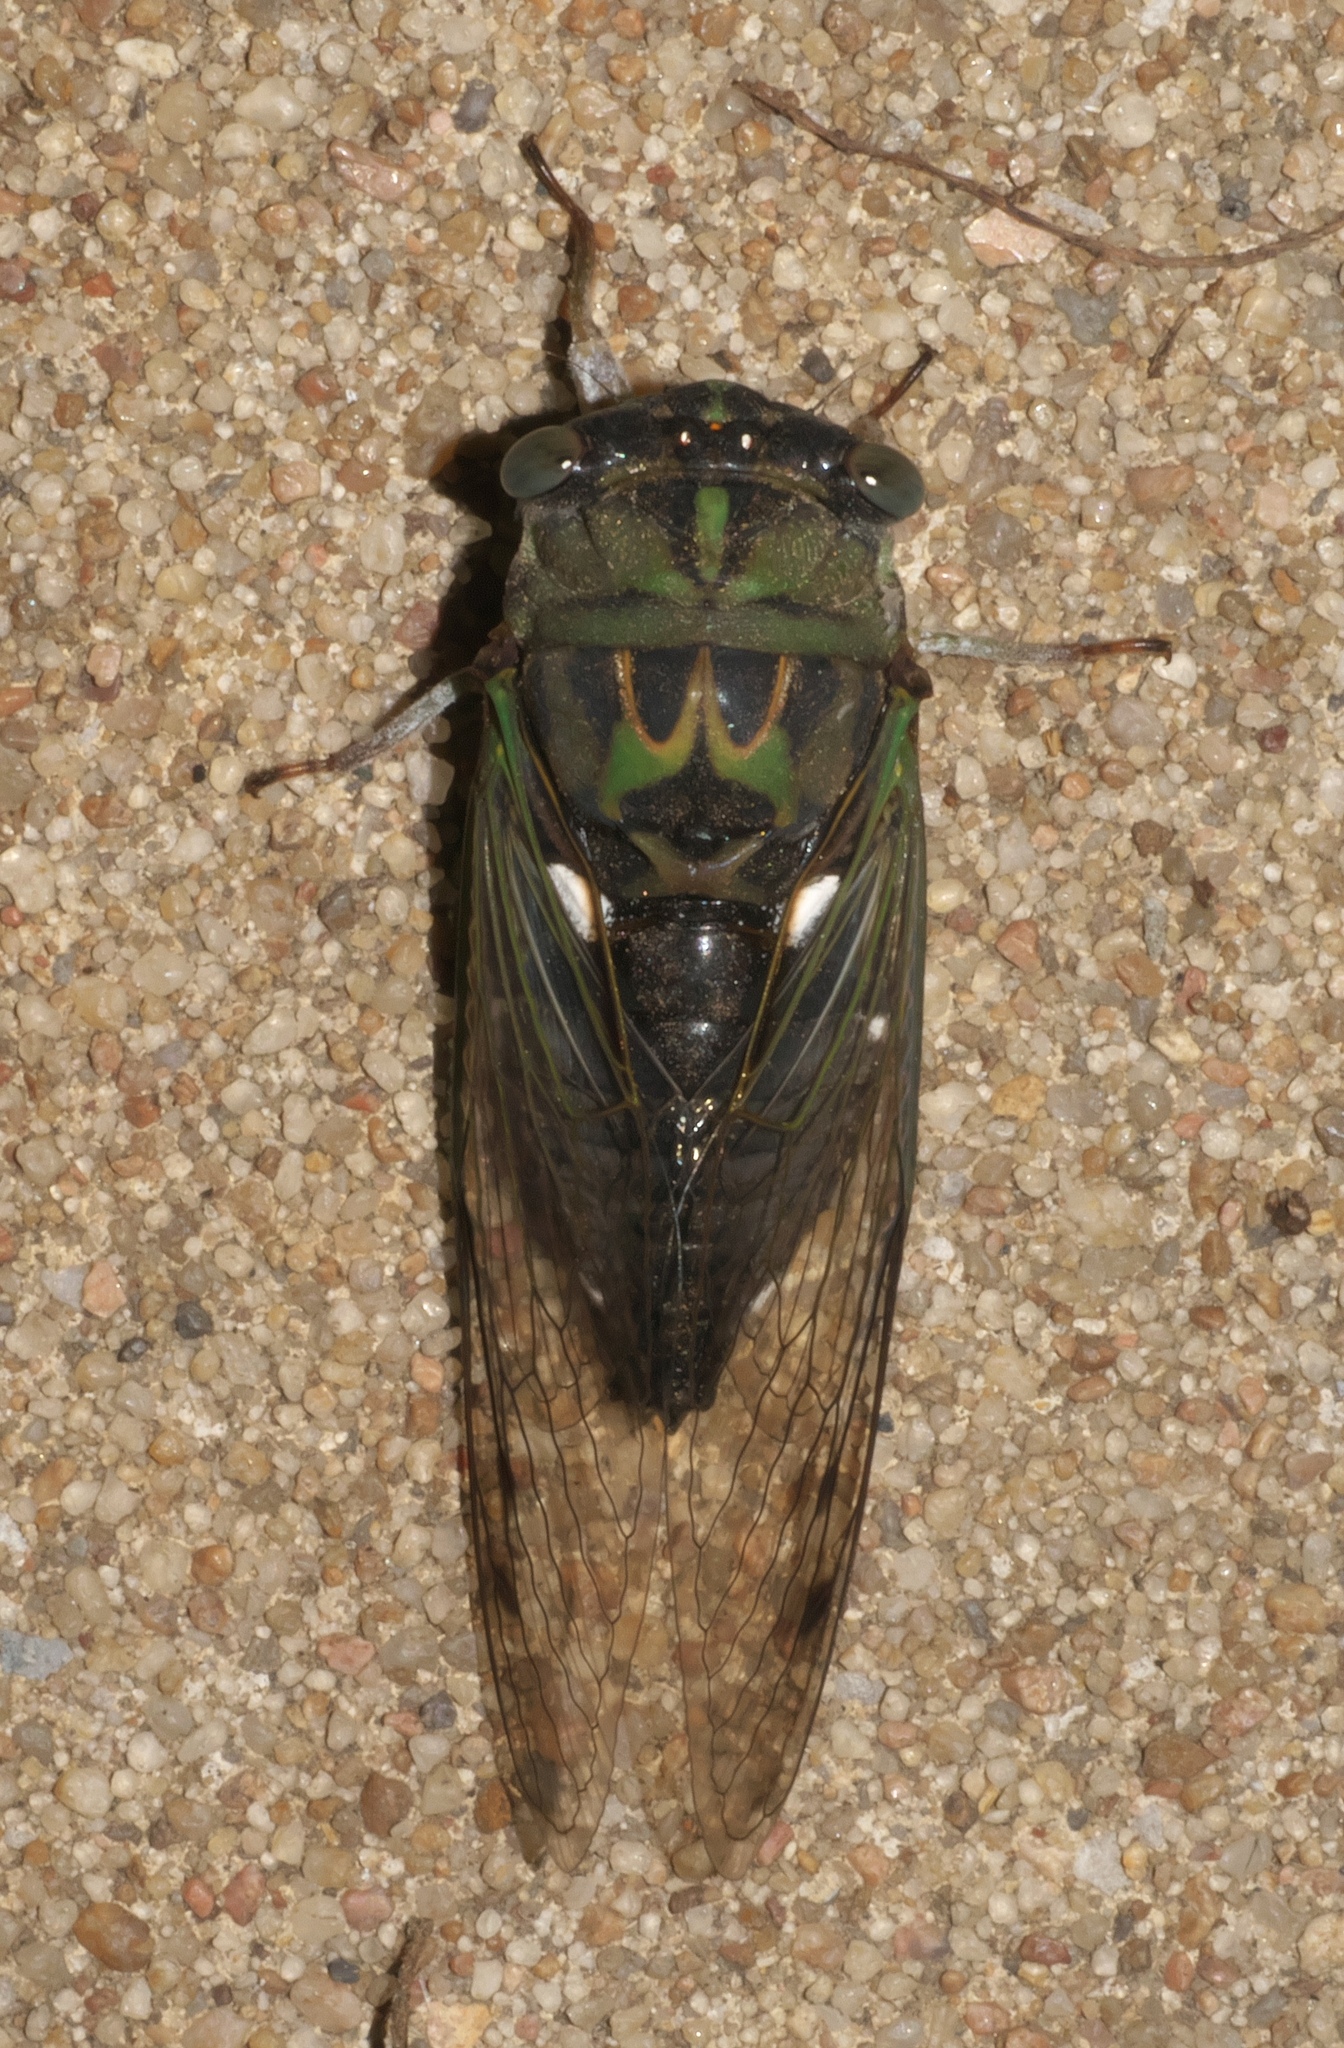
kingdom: Animalia
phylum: Arthropoda
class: Insecta
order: Hemiptera
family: Cicadidae
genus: Neotibicen
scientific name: Neotibicen pruinosus
